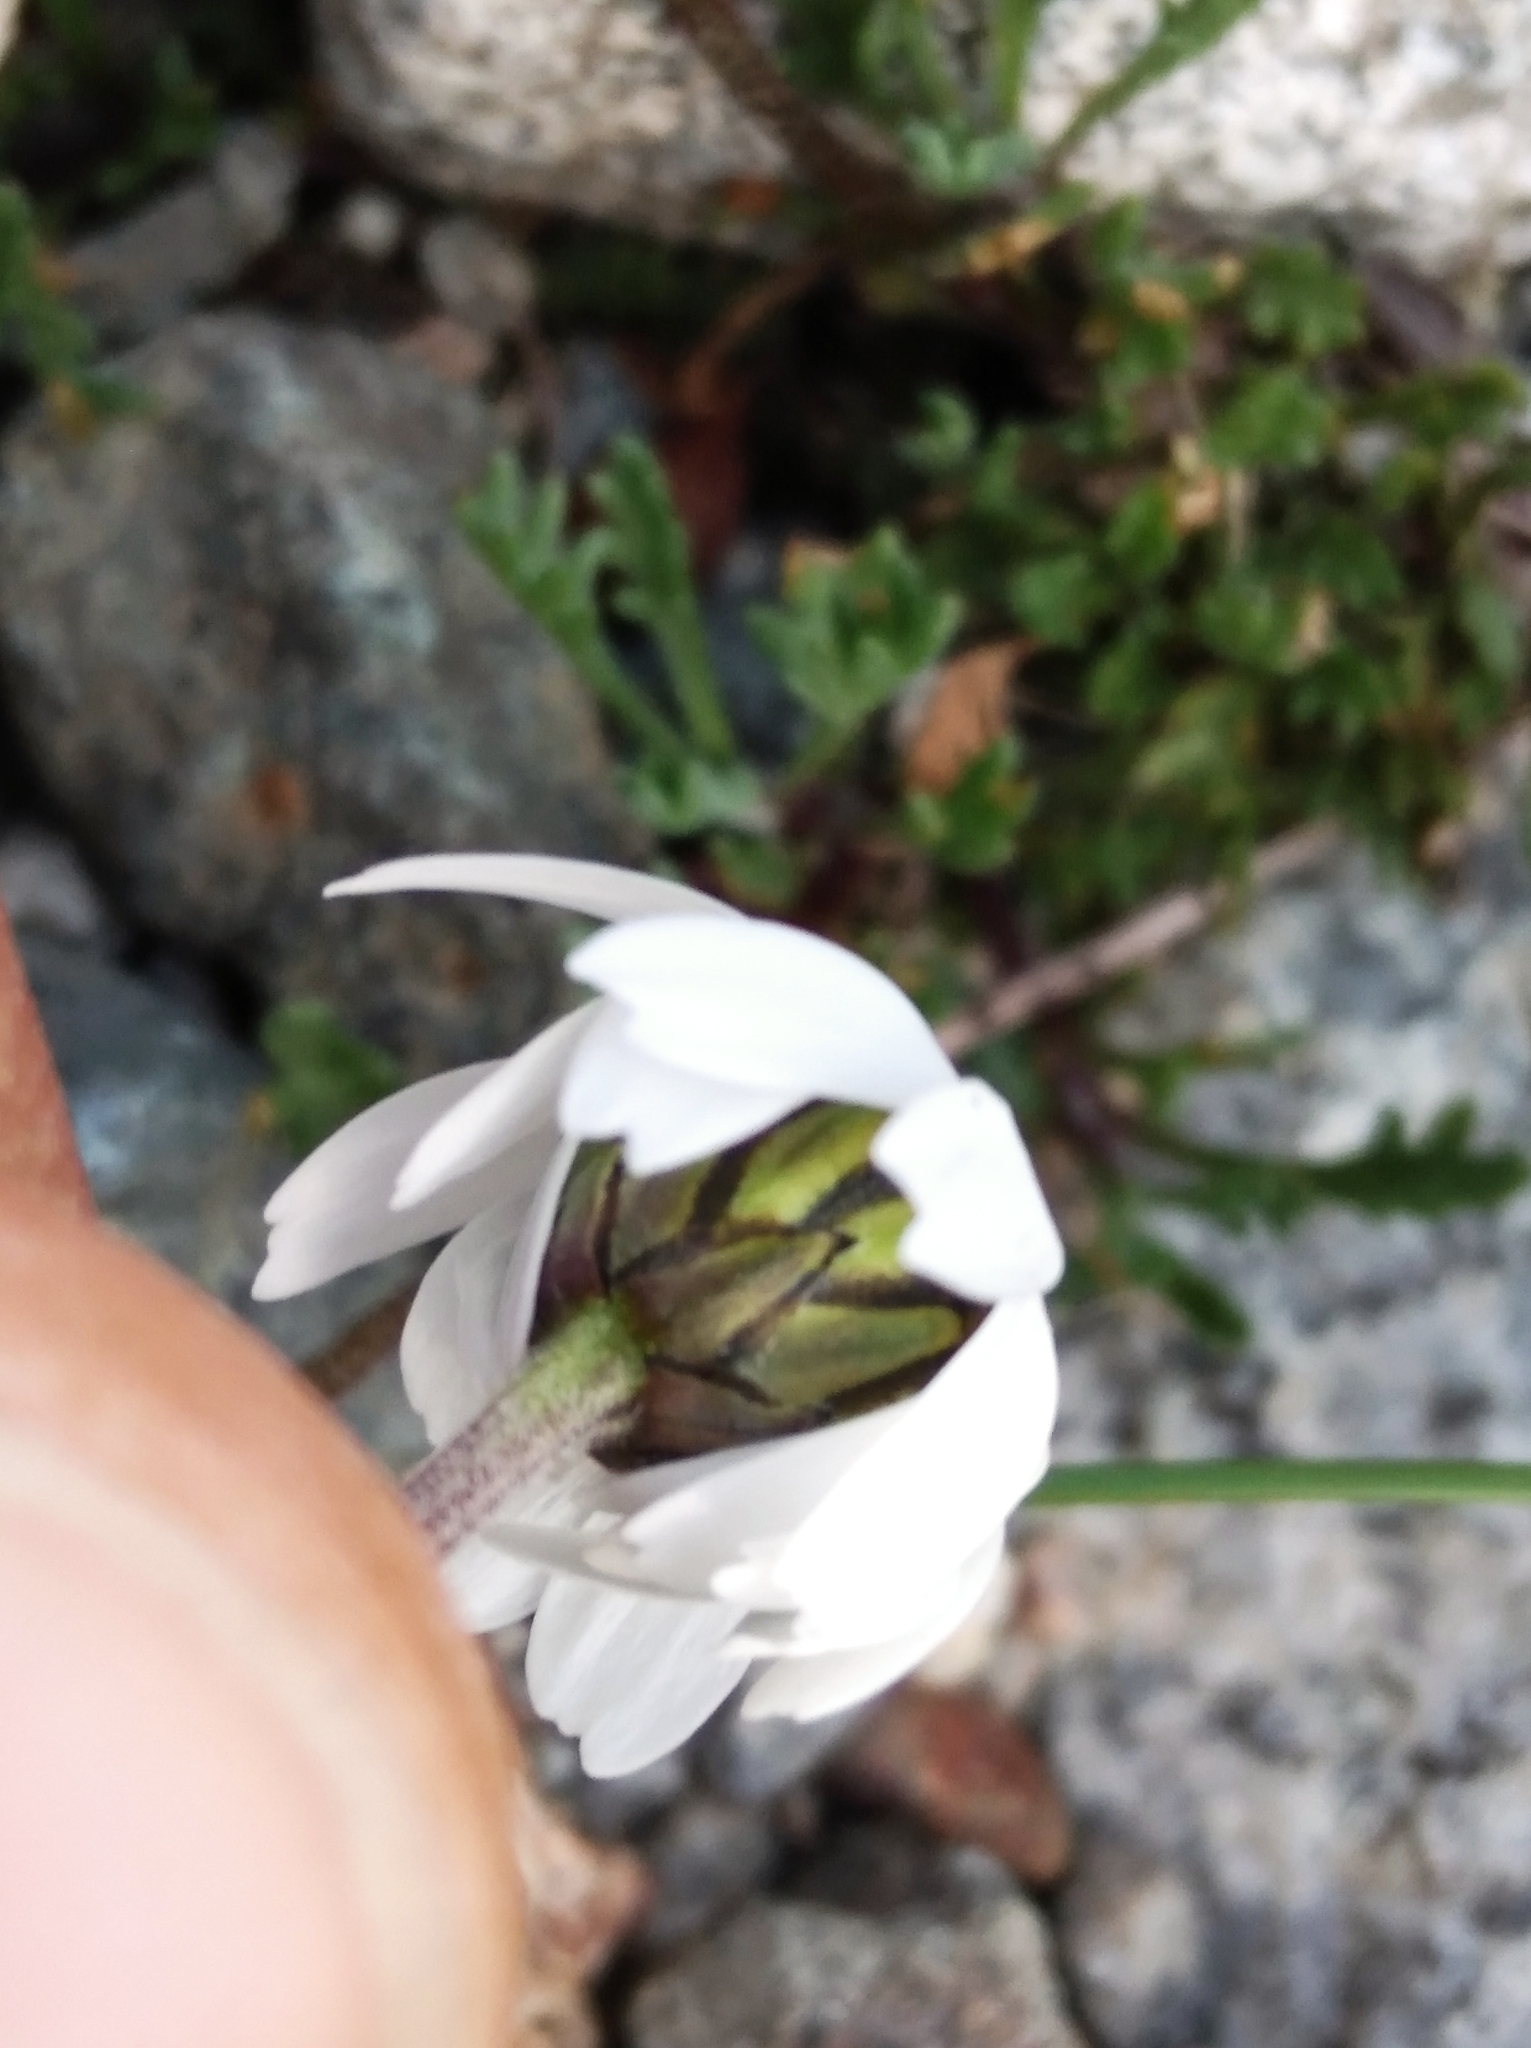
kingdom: Plantae
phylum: Tracheophyta
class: Magnoliopsida
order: Asterales
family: Asteraceae
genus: Leucanthemopsis
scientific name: Leucanthemopsis alpina
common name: Alpine moon daisy
